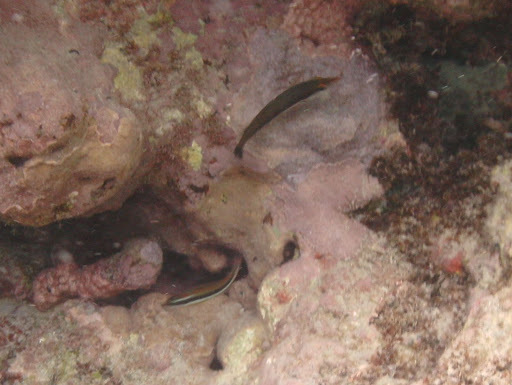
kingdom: Animalia
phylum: Chordata
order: Perciformes
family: Labridae
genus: Thalassoma
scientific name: Thalassoma duperrey
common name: Saddle wrasse
